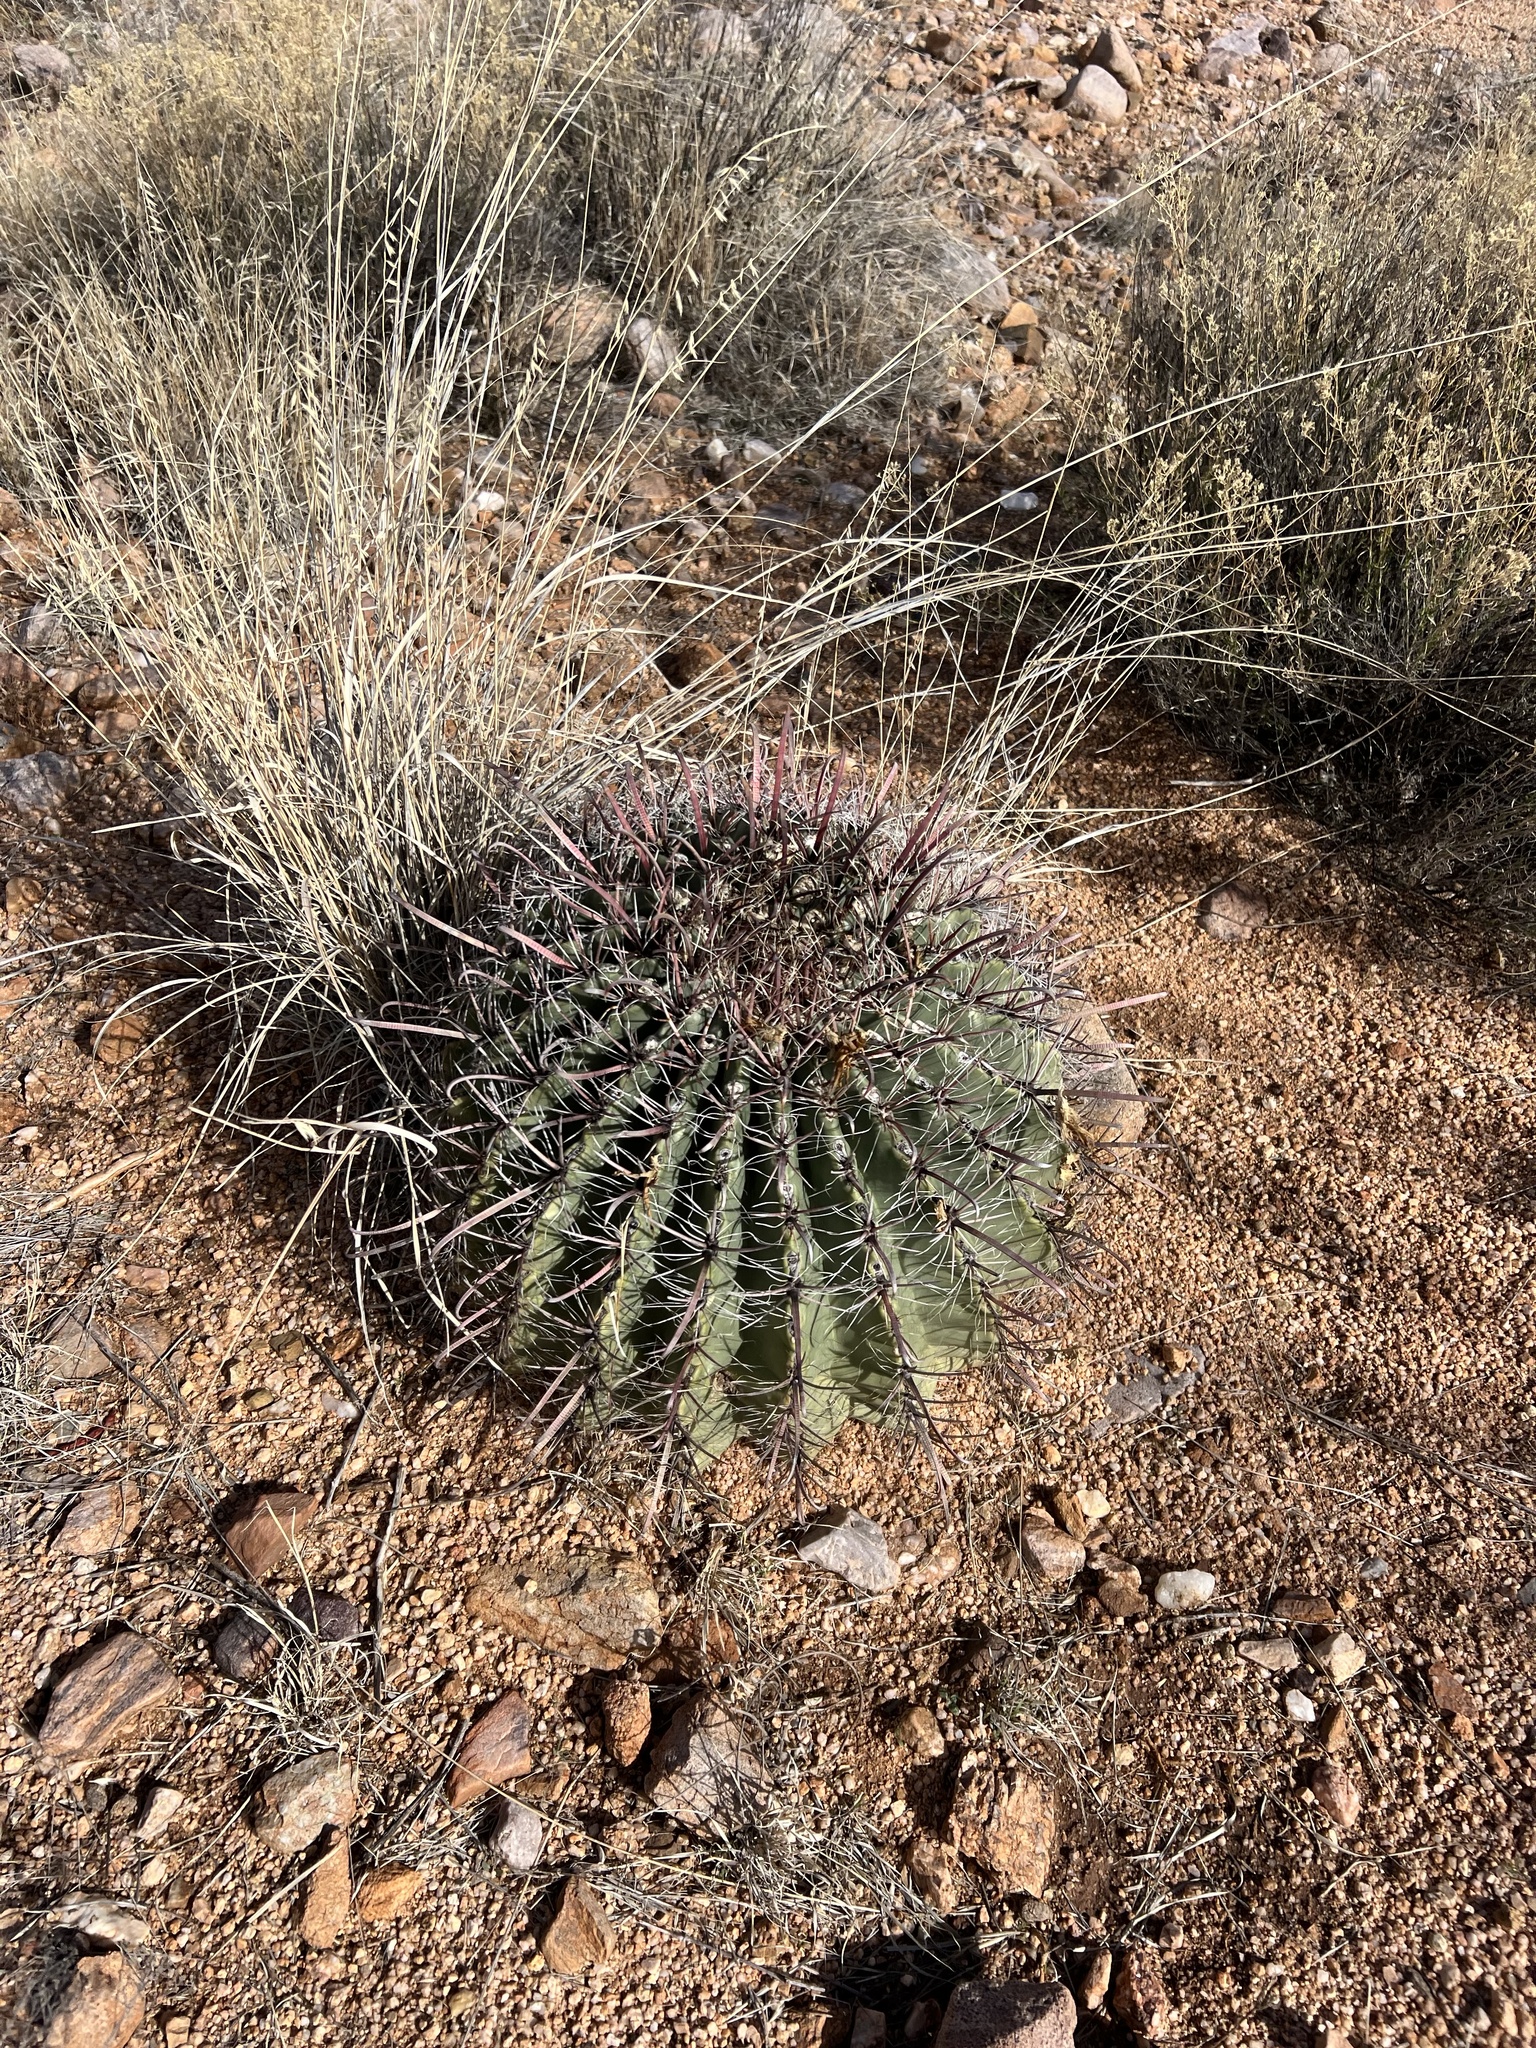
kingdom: Plantae
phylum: Tracheophyta
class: Magnoliopsida
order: Caryophyllales
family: Cactaceae
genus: Ferocactus
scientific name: Ferocactus wislizeni
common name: Candy barrel cactus
